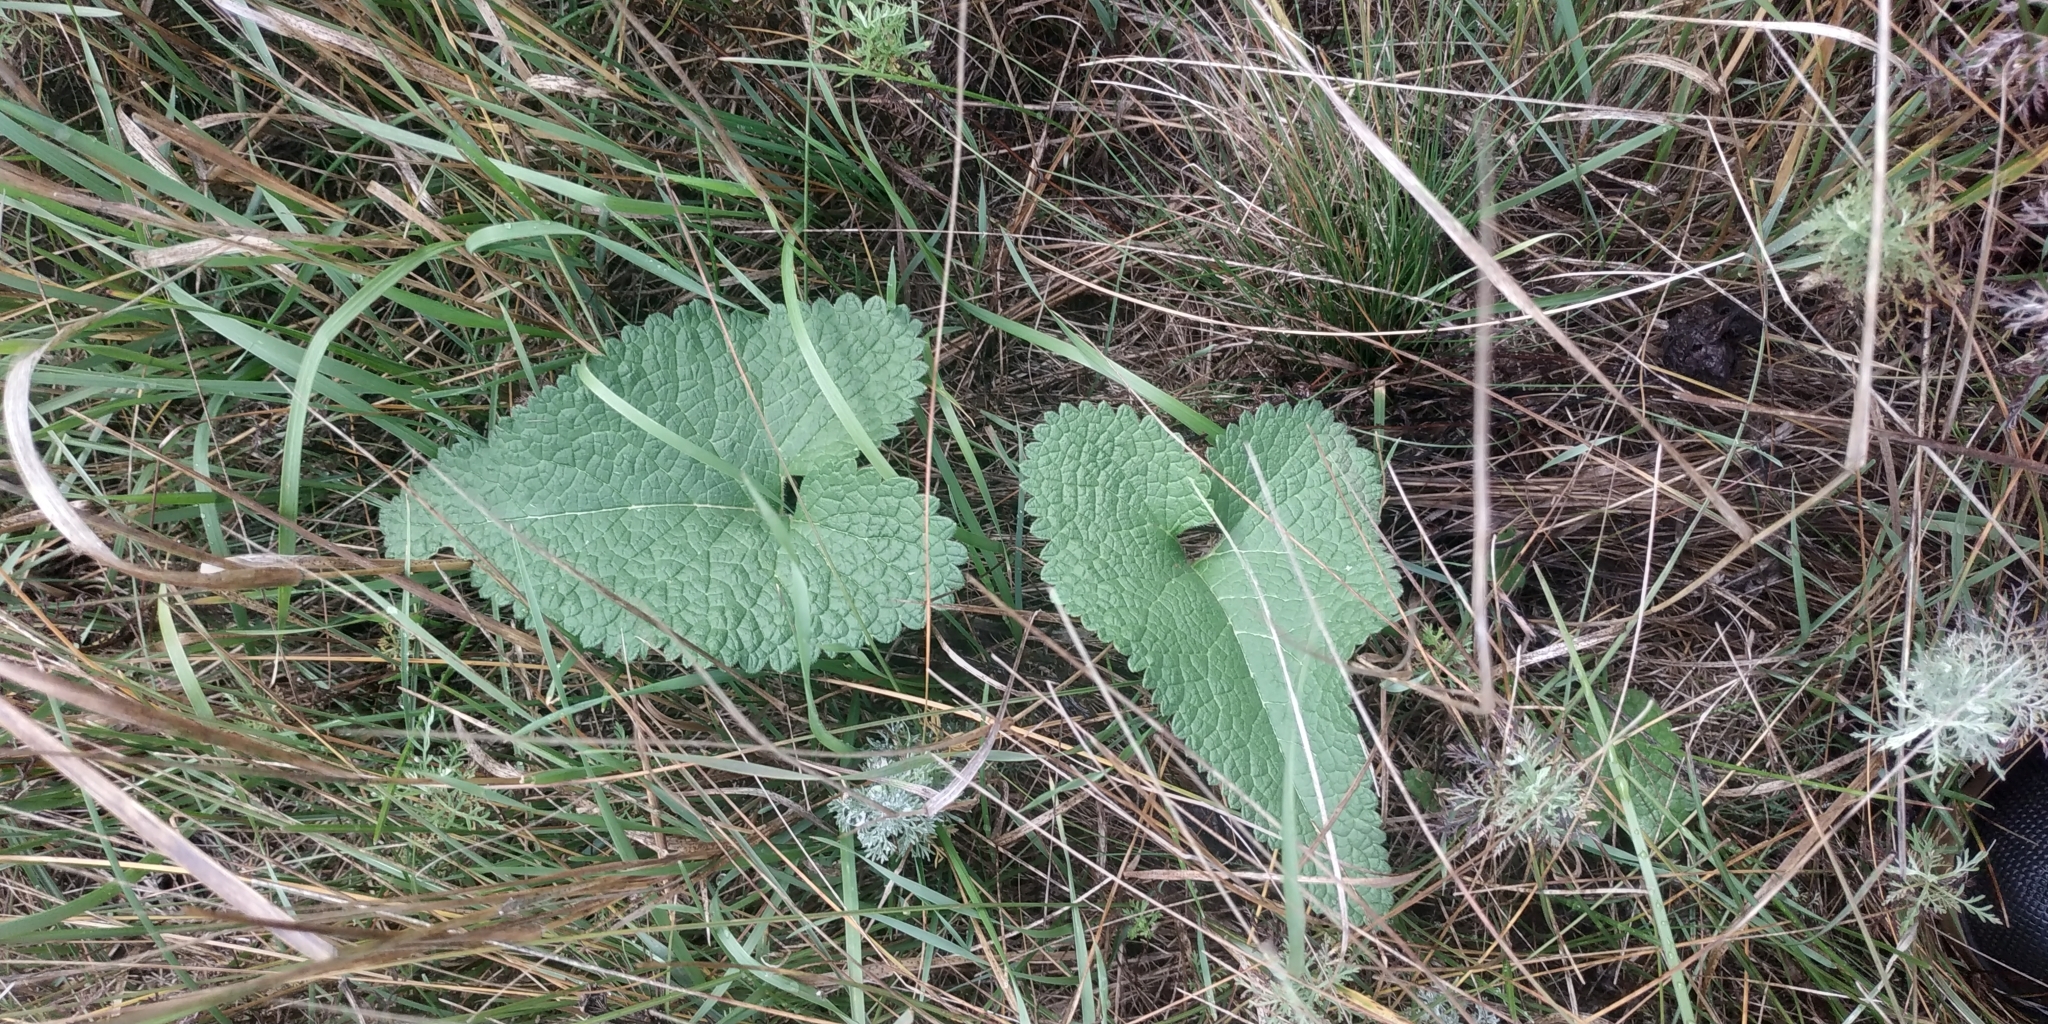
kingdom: Plantae
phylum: Tracheophyta
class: Magnoliopsida
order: Lamiales
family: Lamiaceae
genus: Phlomoides
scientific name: Phlomoides tuberosa
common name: Tuberous jerusalem sage
